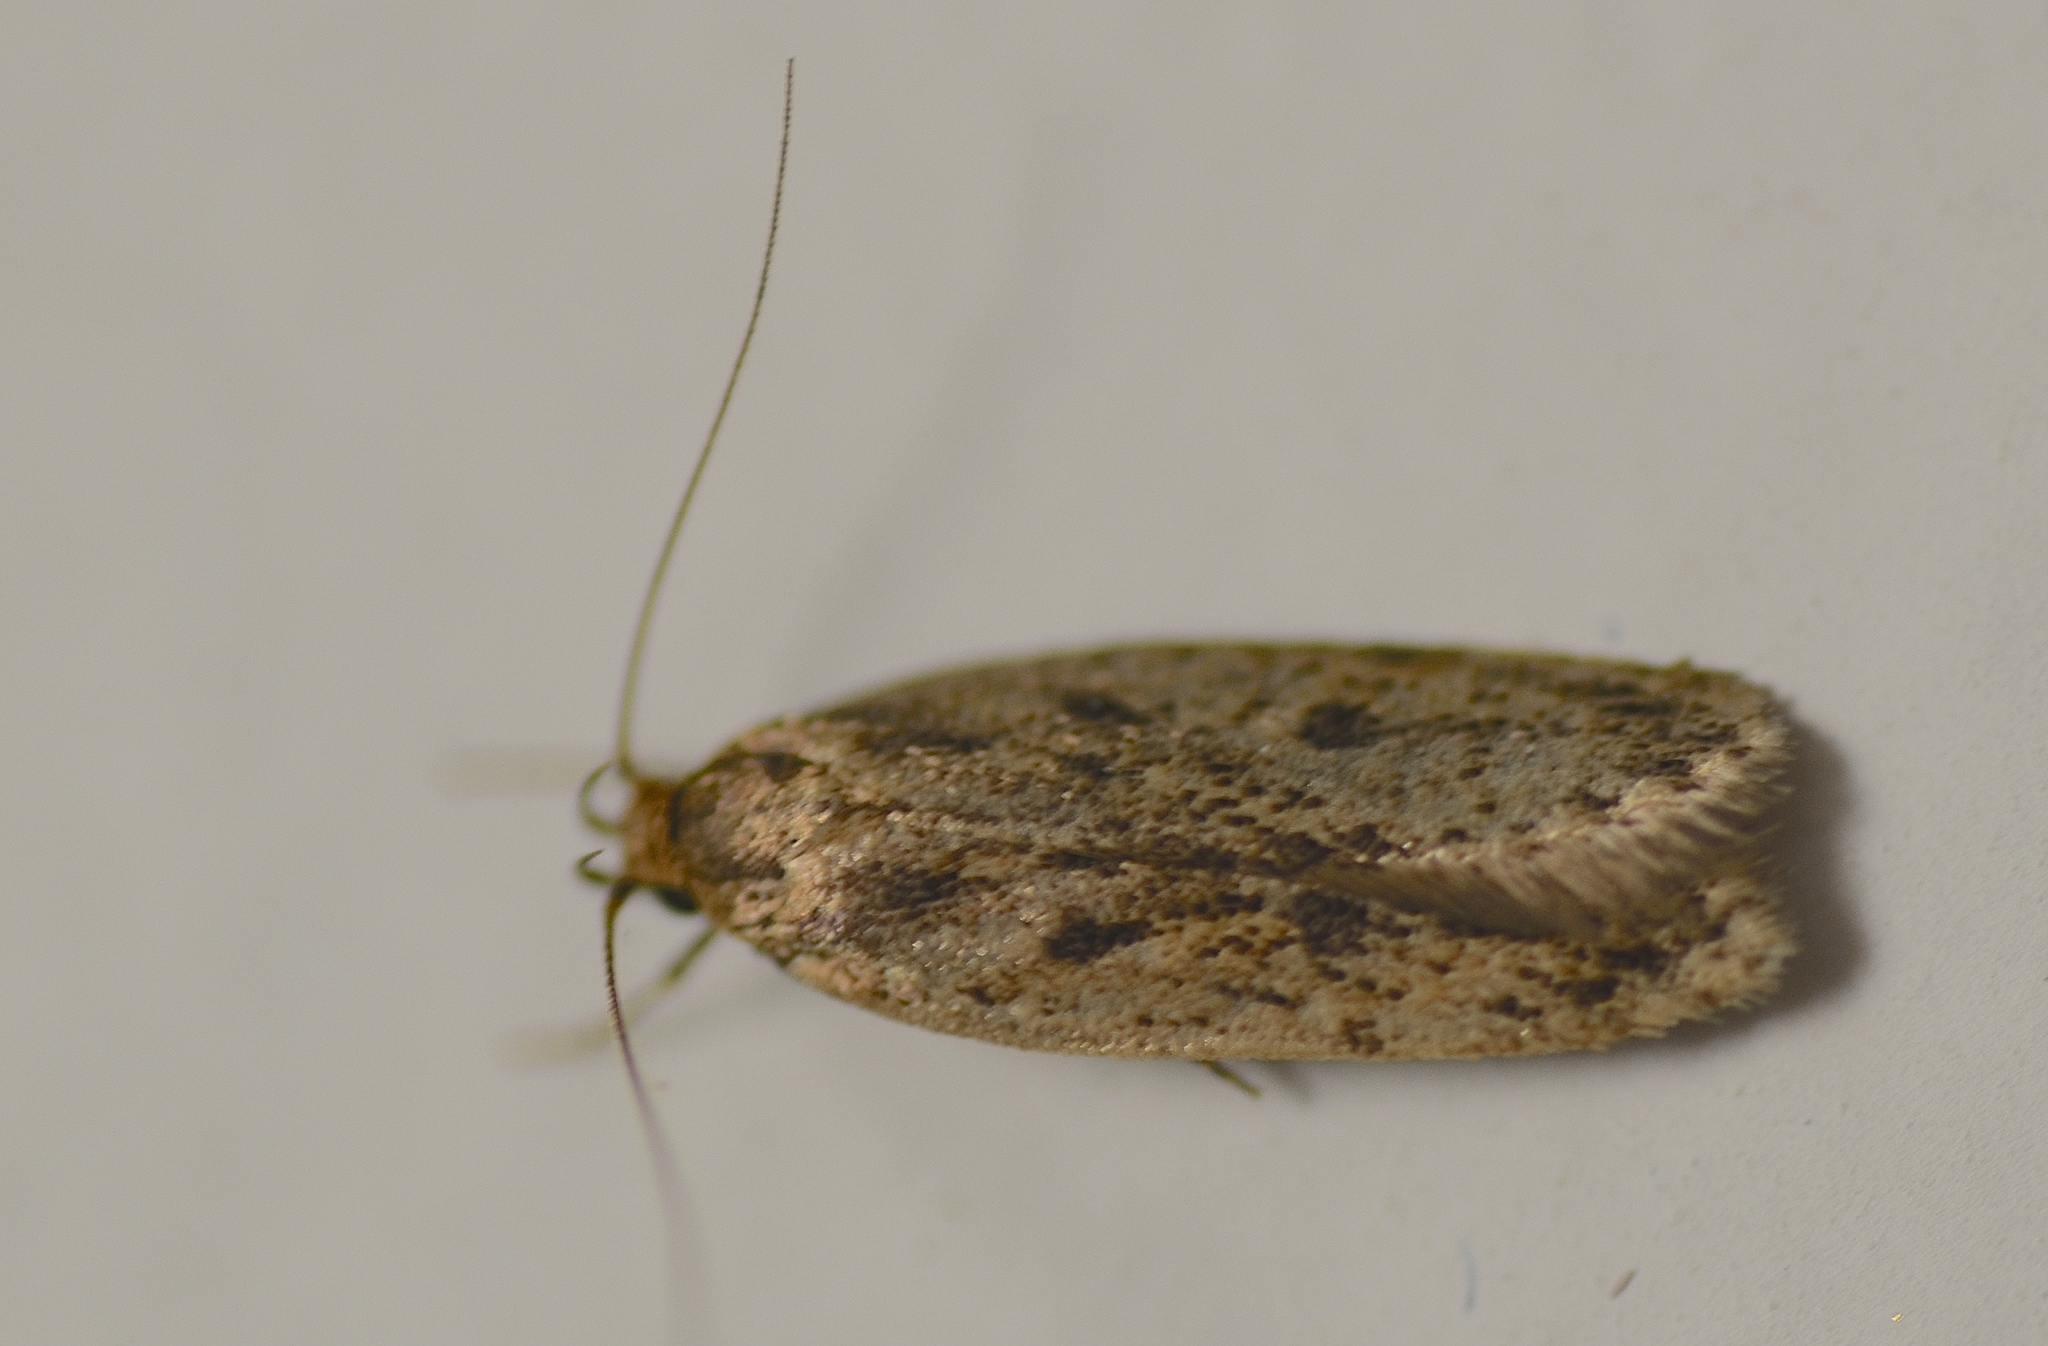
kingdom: Animalia
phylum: Arthropoda
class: Insecta
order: Lepidoptera
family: Oecophoridae
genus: Hofmannophila
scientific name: Hofmannophila pseudospretella
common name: Brown house moth
